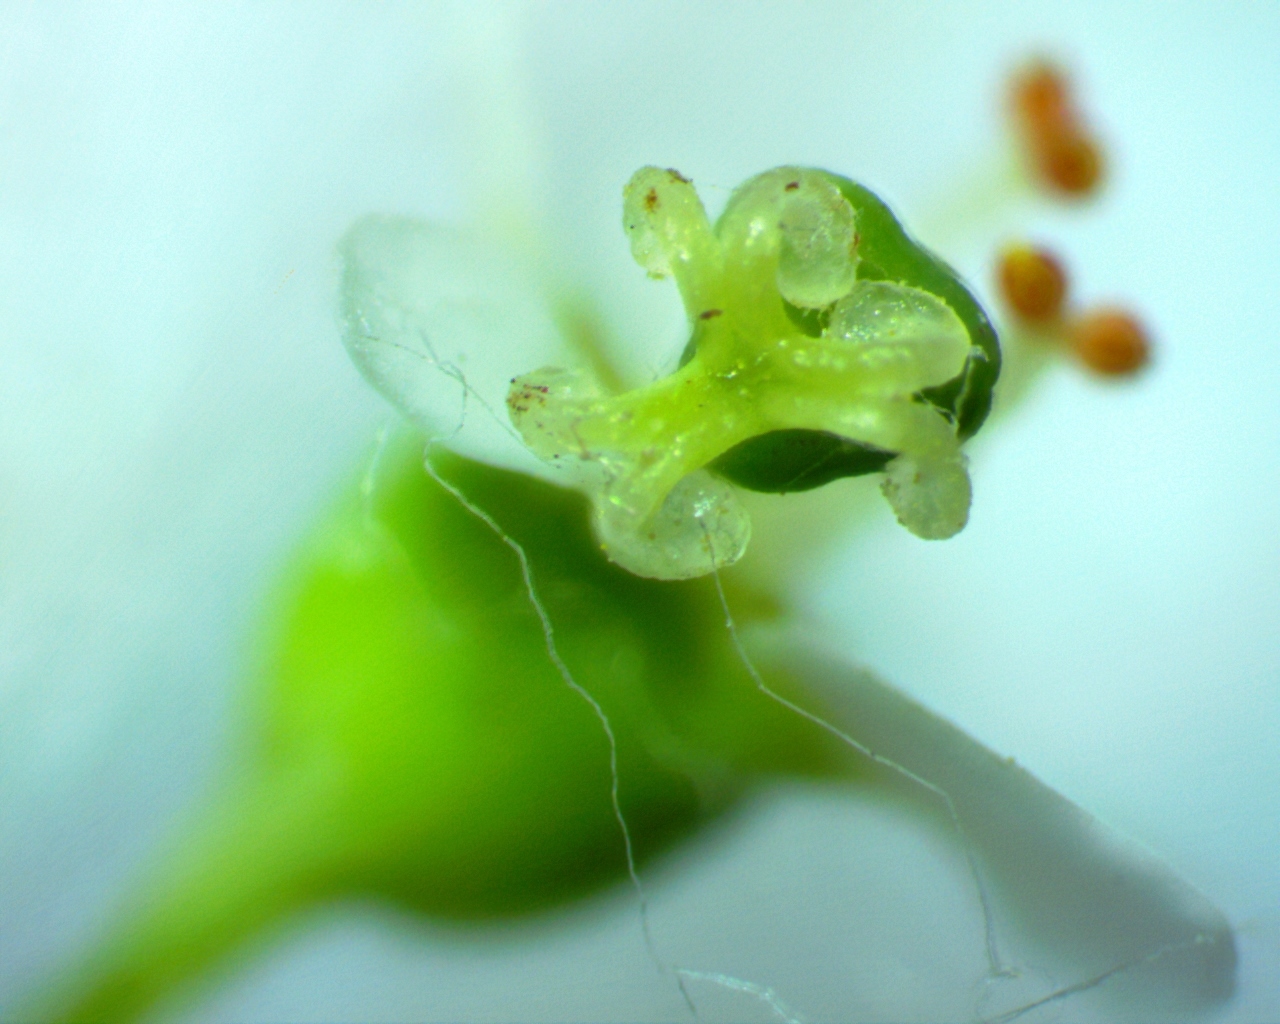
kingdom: Plantae
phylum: Tracheophyta
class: Magnoliopsida
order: Malpighiales
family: Euphorbiaceae
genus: Euphorbia
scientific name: Euphorbia corollata
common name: Flowering spurge
